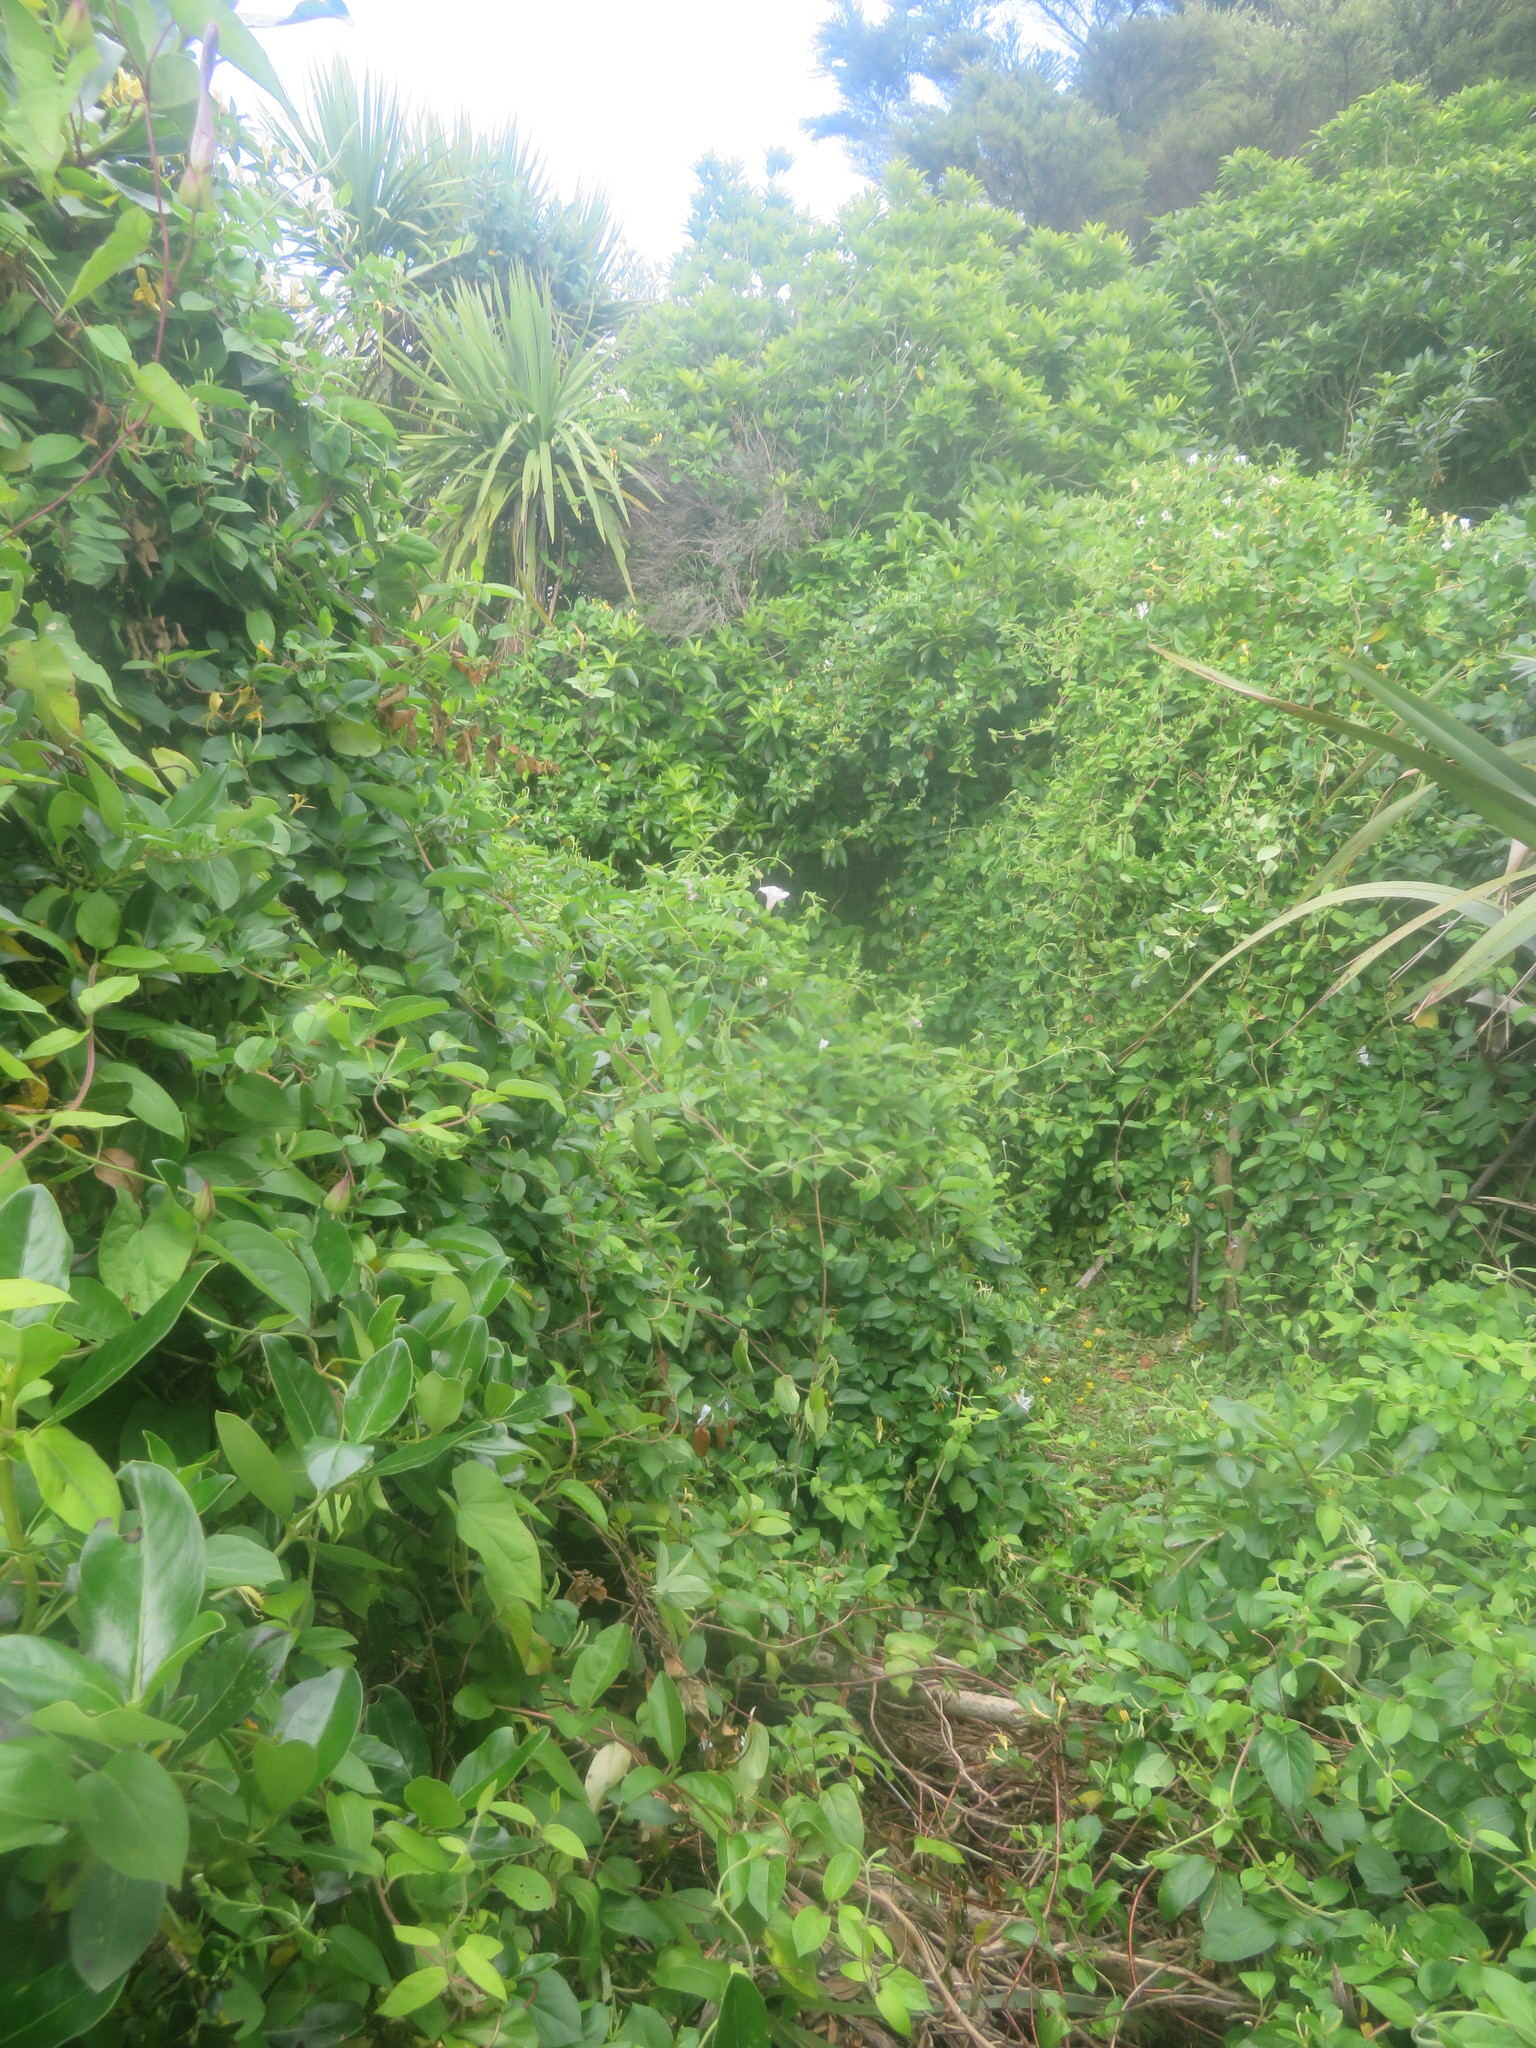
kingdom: Plantae
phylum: Tracheophyta
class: Liliopsida
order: Asparagales
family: Asparagaceae
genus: Cordyline
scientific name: Cordyline australis
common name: Cabbage-palm
